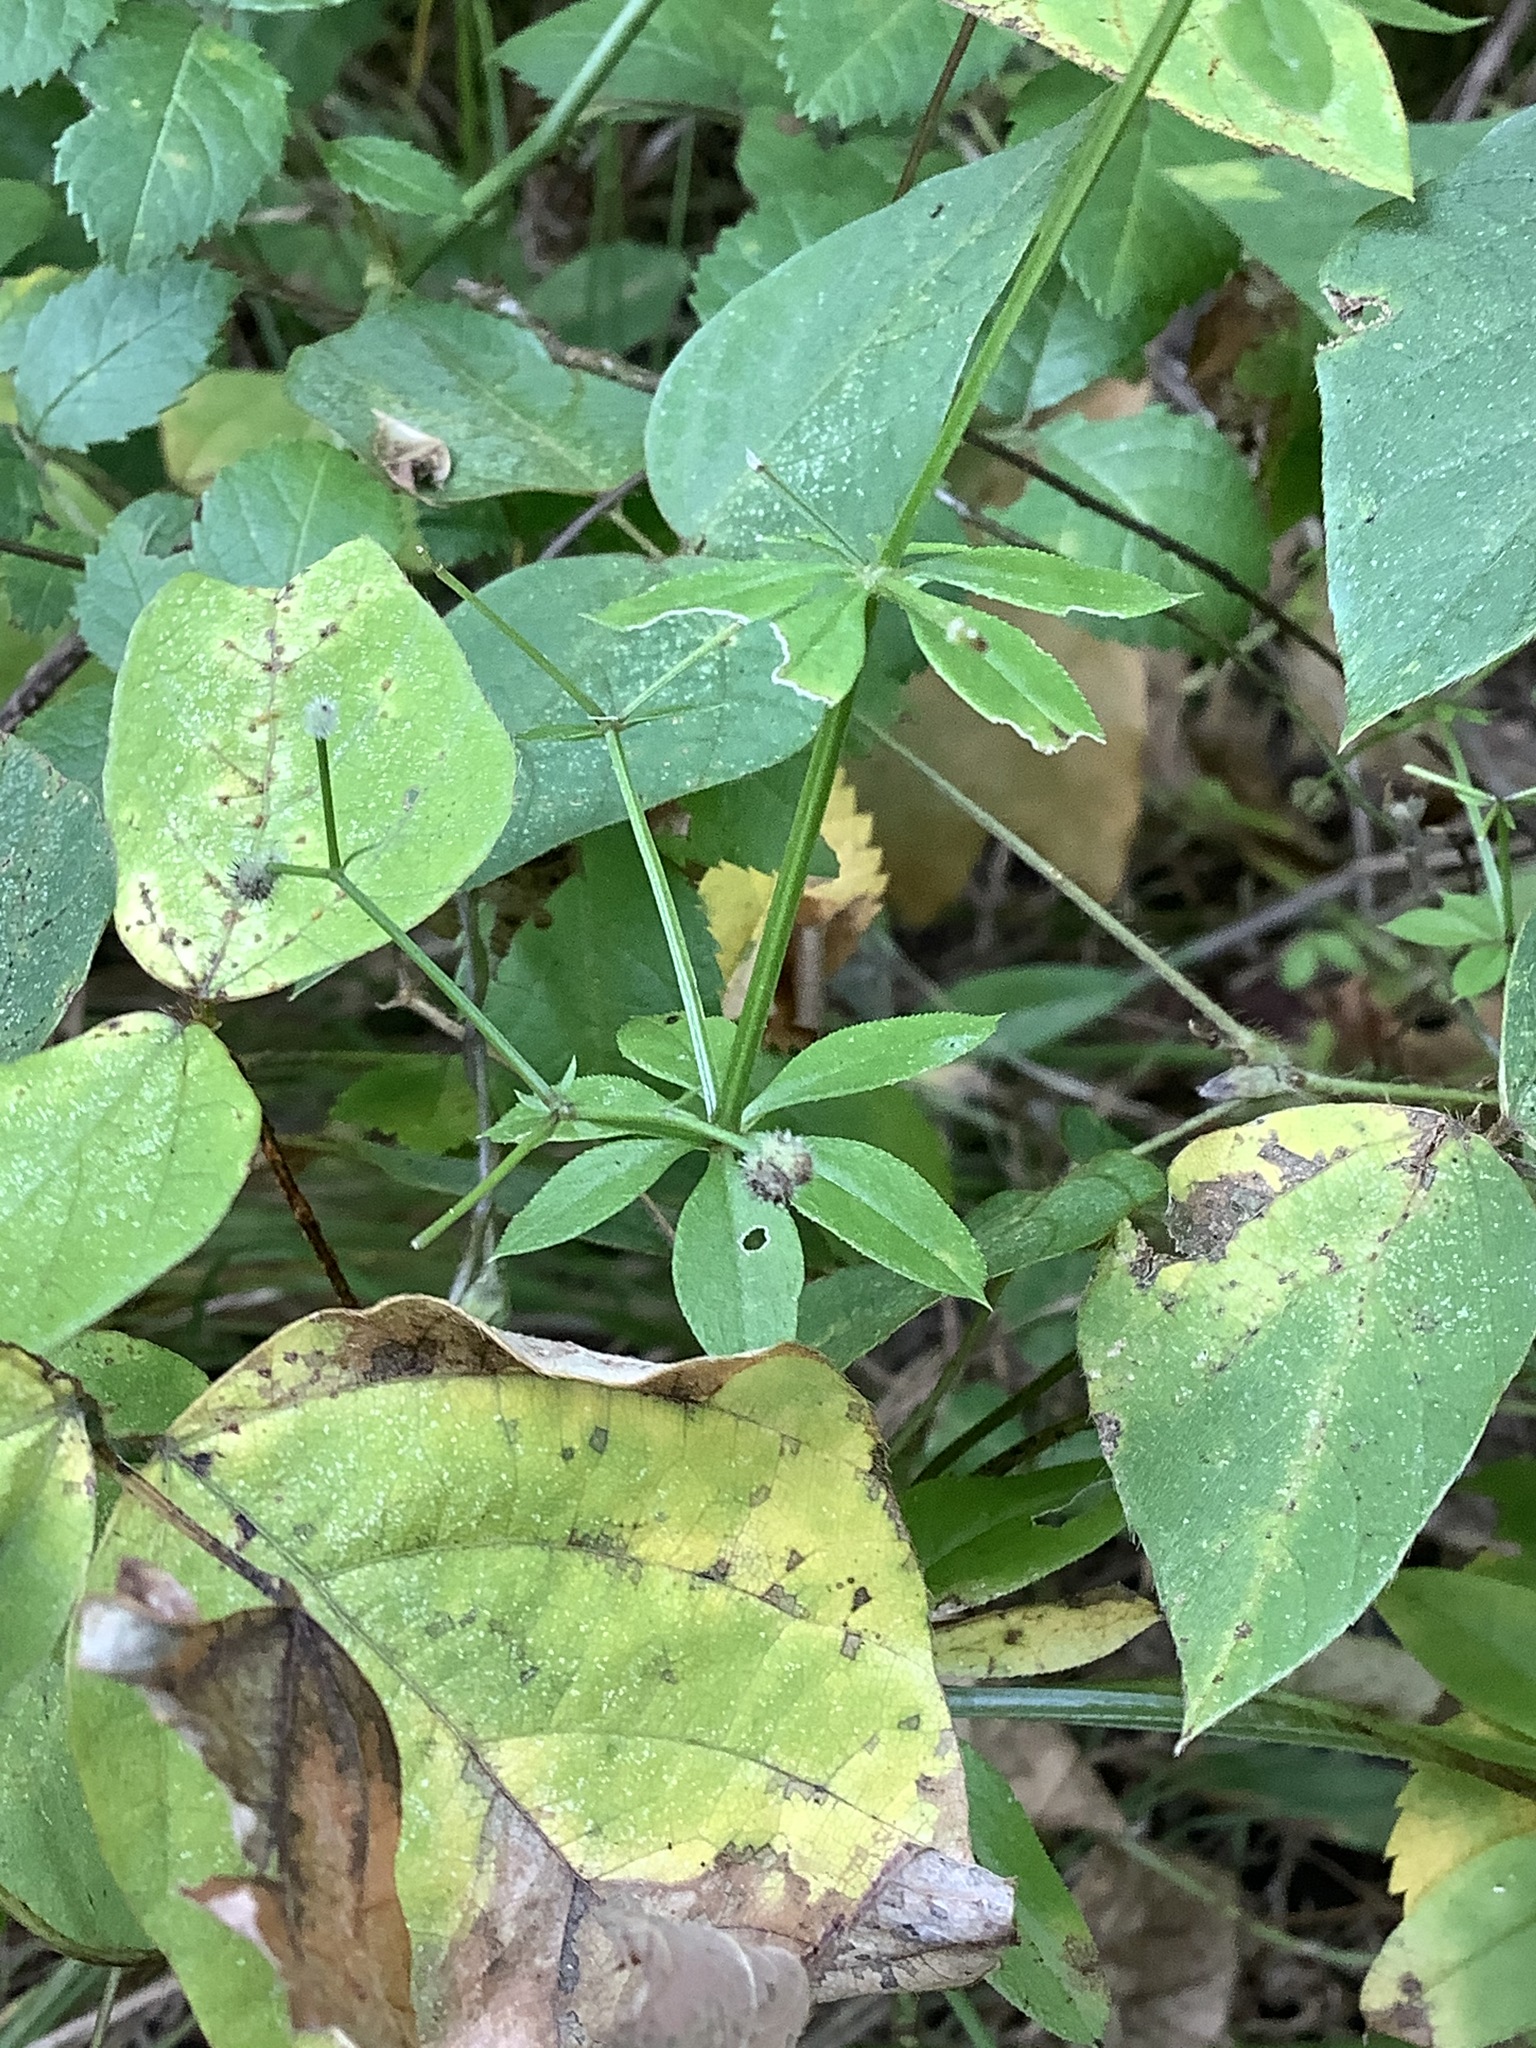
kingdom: Plantae
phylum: Tracheophyta
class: Magnoliopsida
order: Gentianales
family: Rubiaceae
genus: Galium
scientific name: Galium triflorum
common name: Fragrant bedstraw
